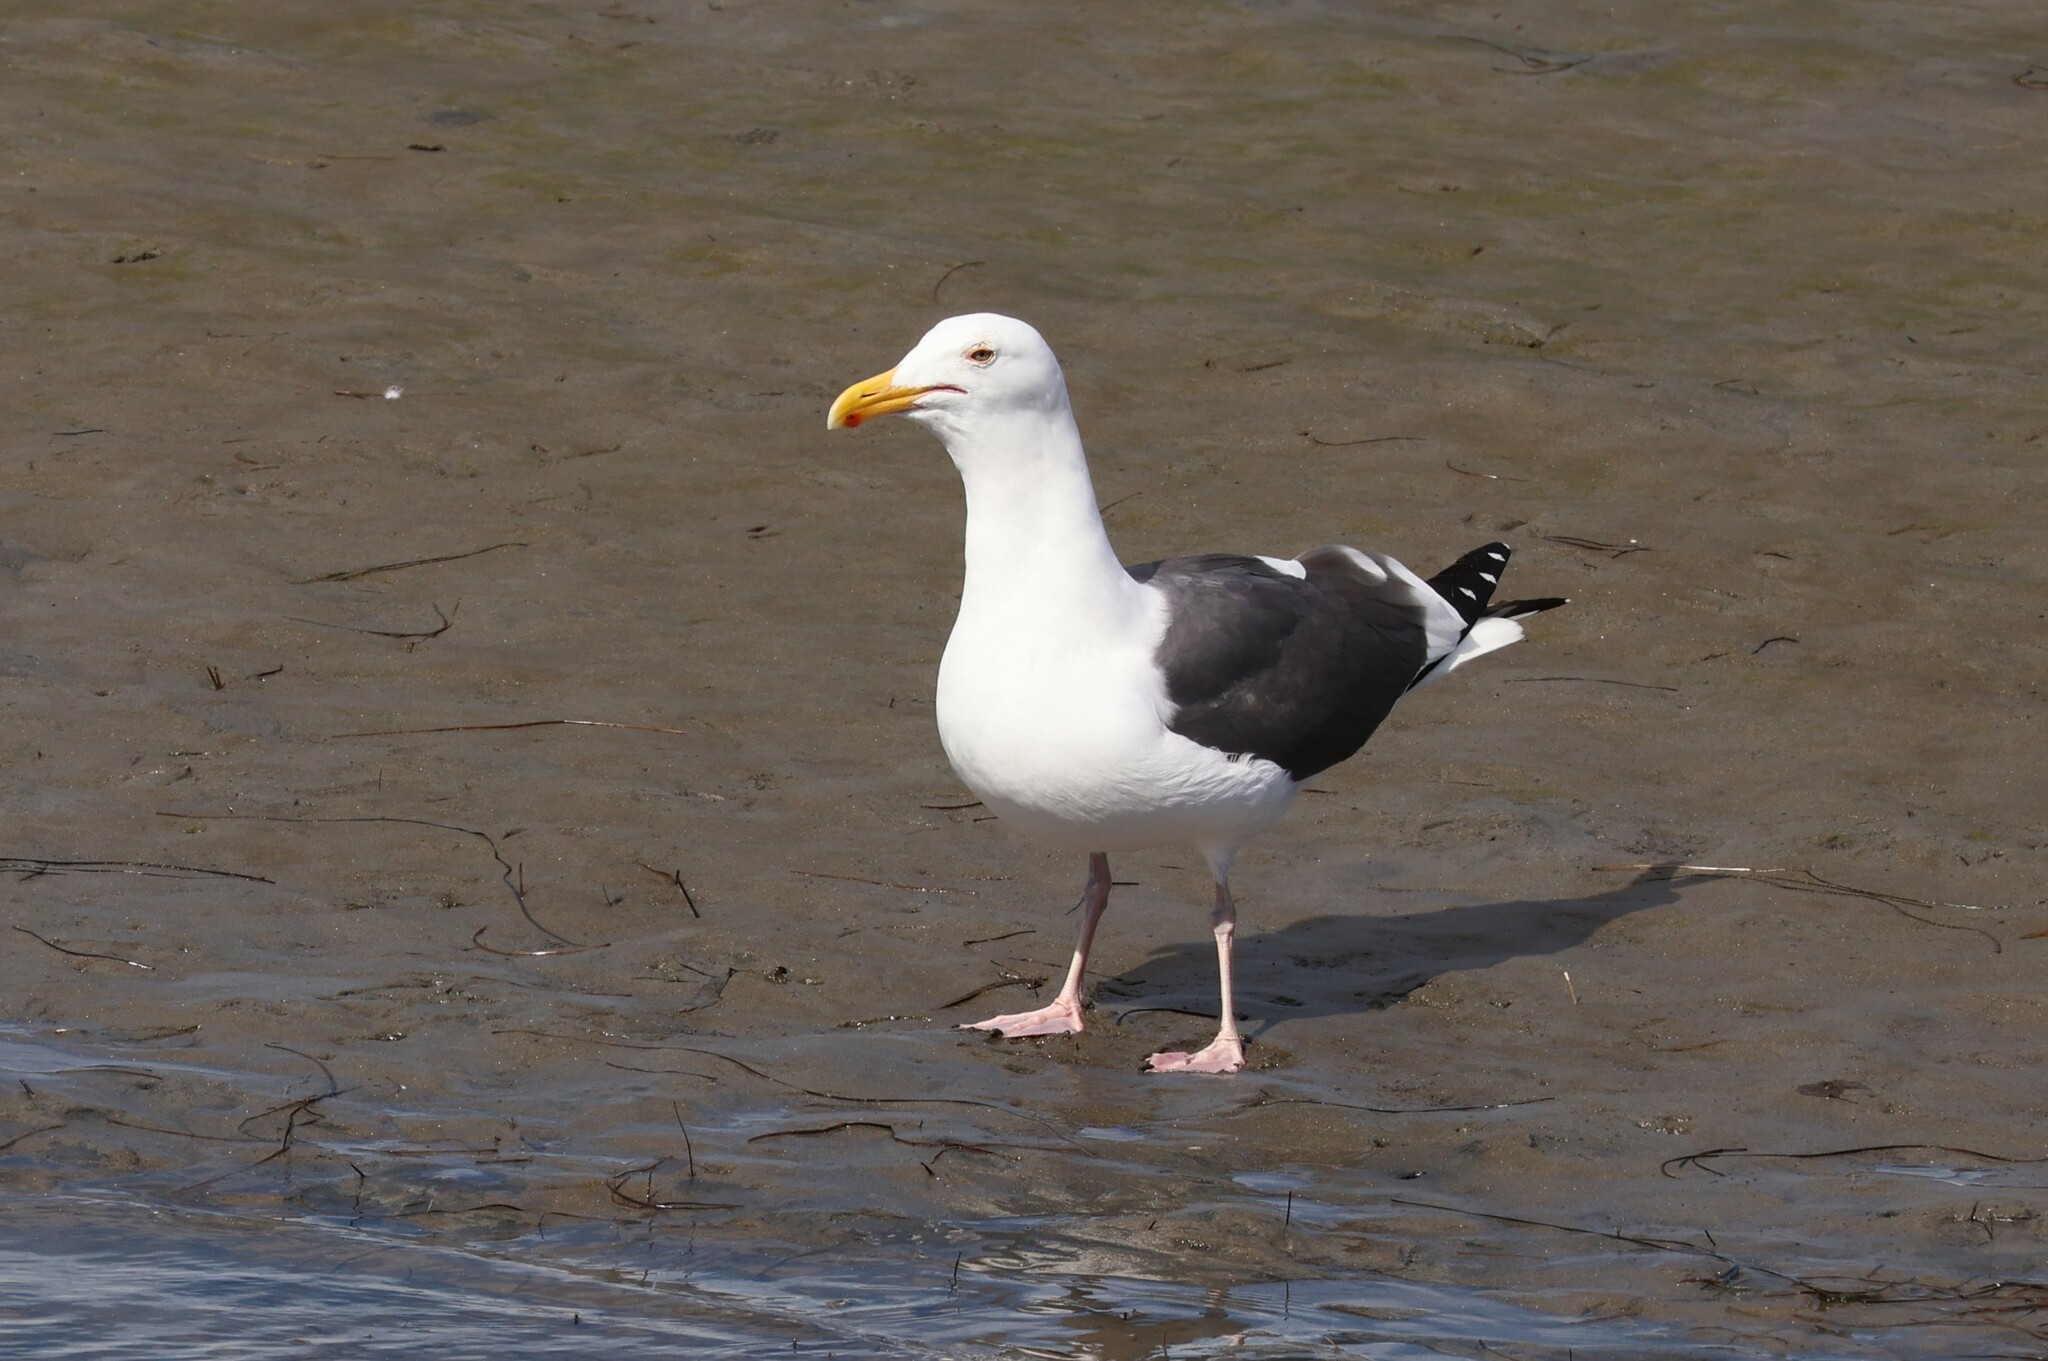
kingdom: Animalia
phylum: Chordata
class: Aves
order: Charadriiformes
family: Laridae
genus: Larus
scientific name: Larus occidentalis
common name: Western gull
